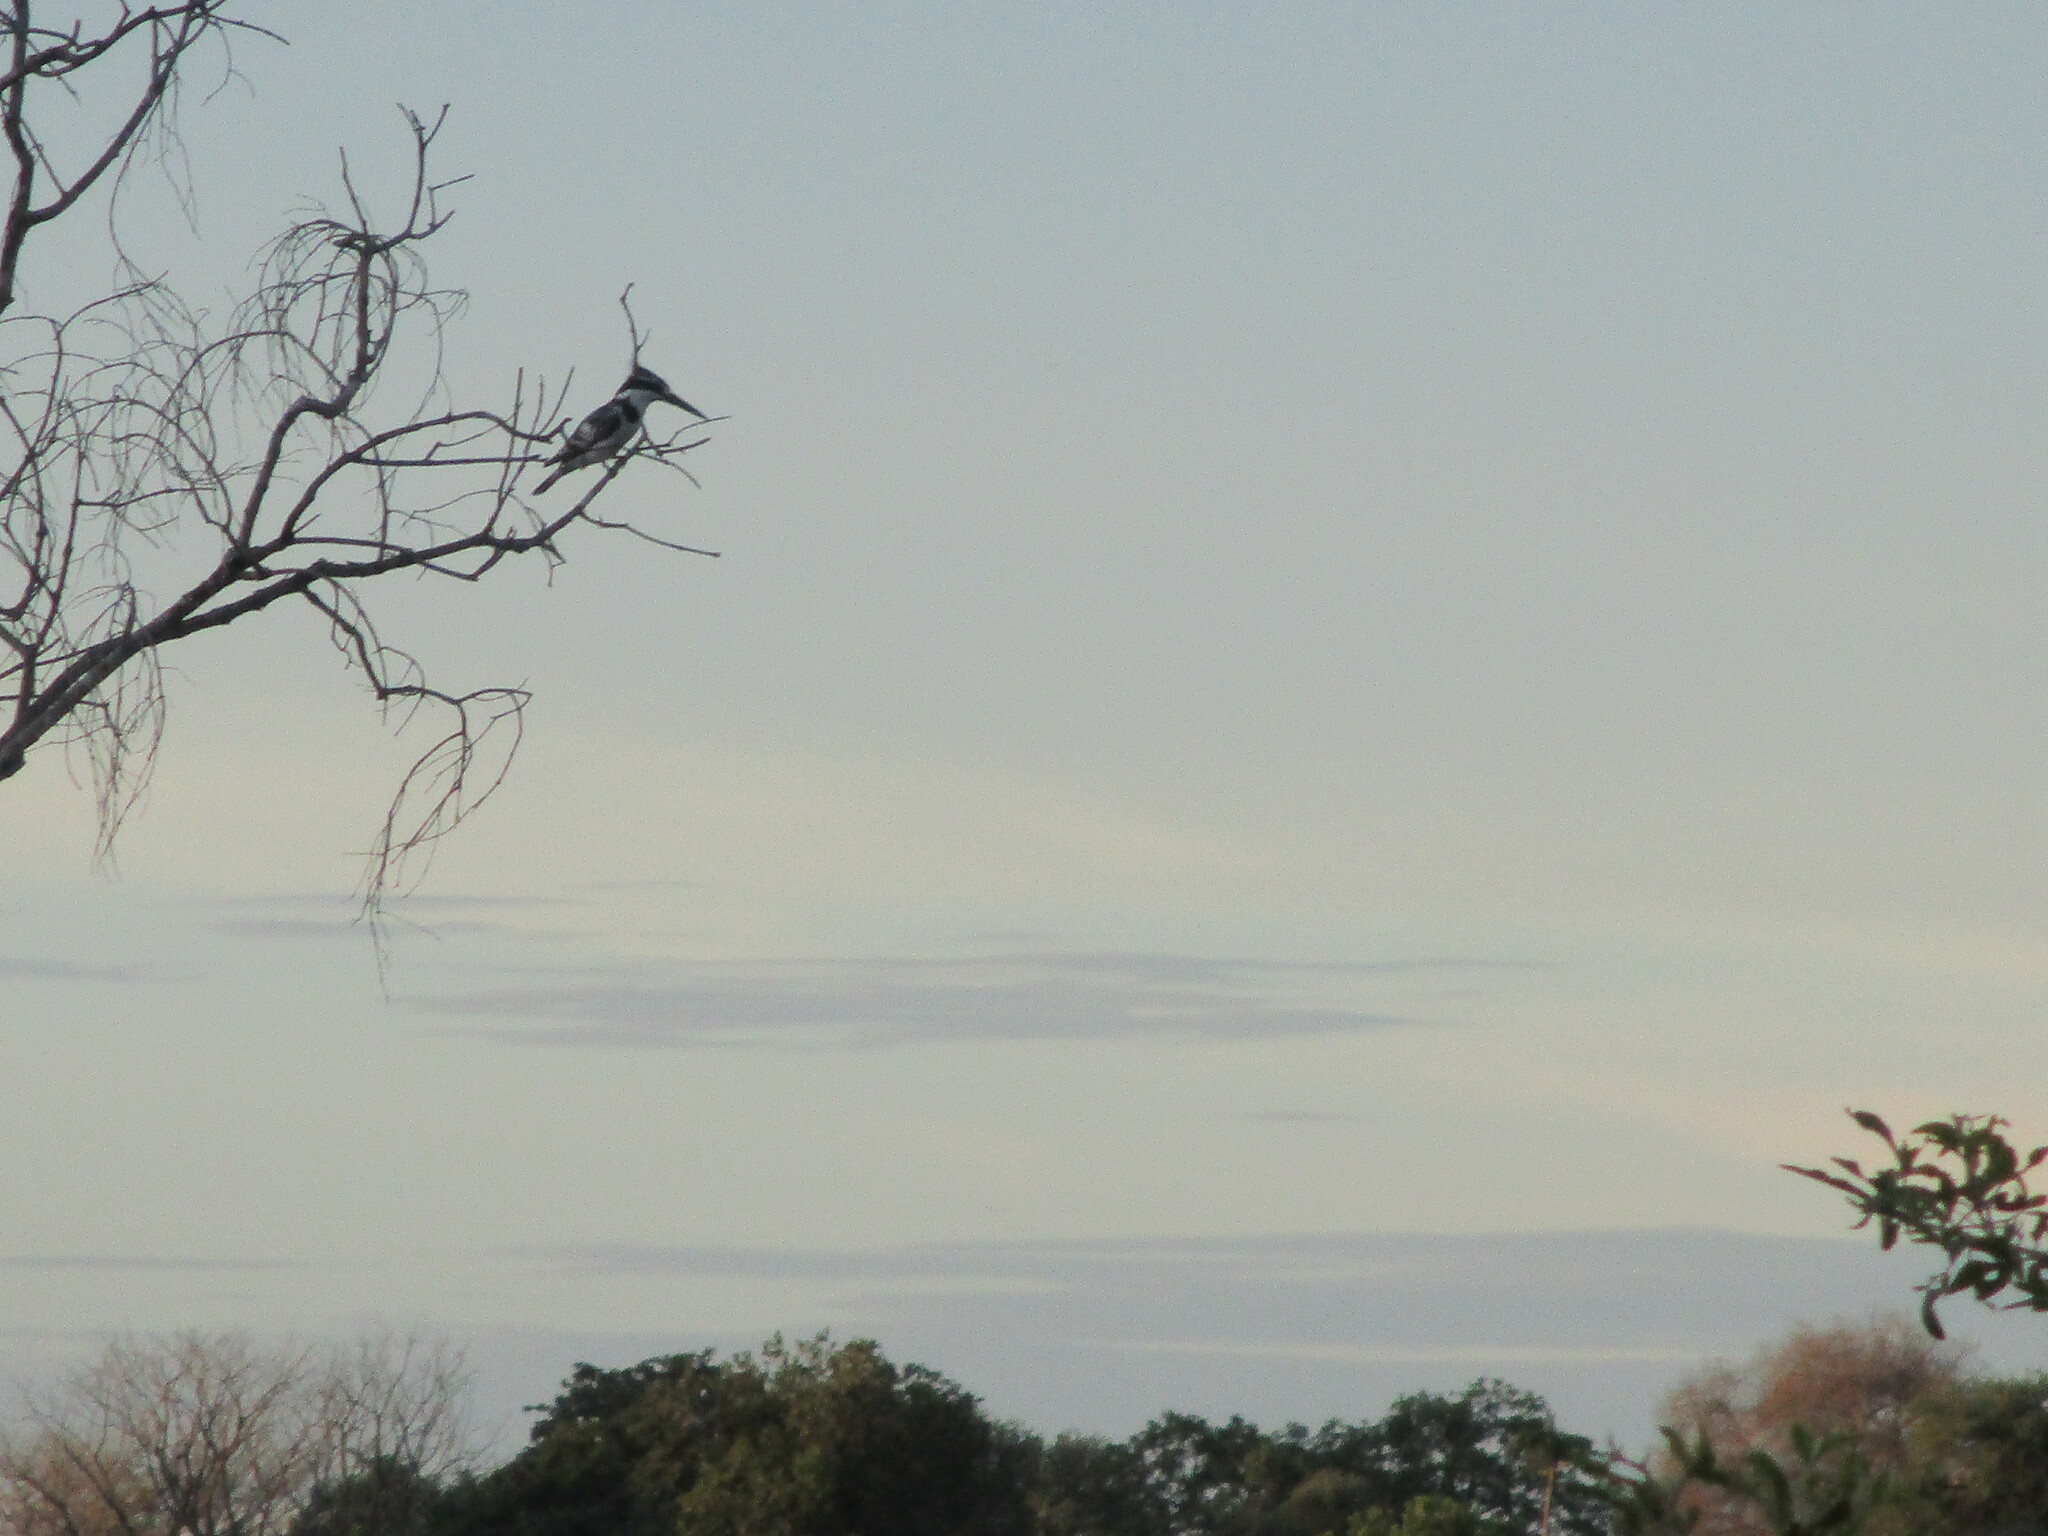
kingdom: Animalia
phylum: Chordata
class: Aves
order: Coraciiformes
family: Alcedinidae
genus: Ceryle
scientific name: Ceryle rudis
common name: Pied kingfisher
